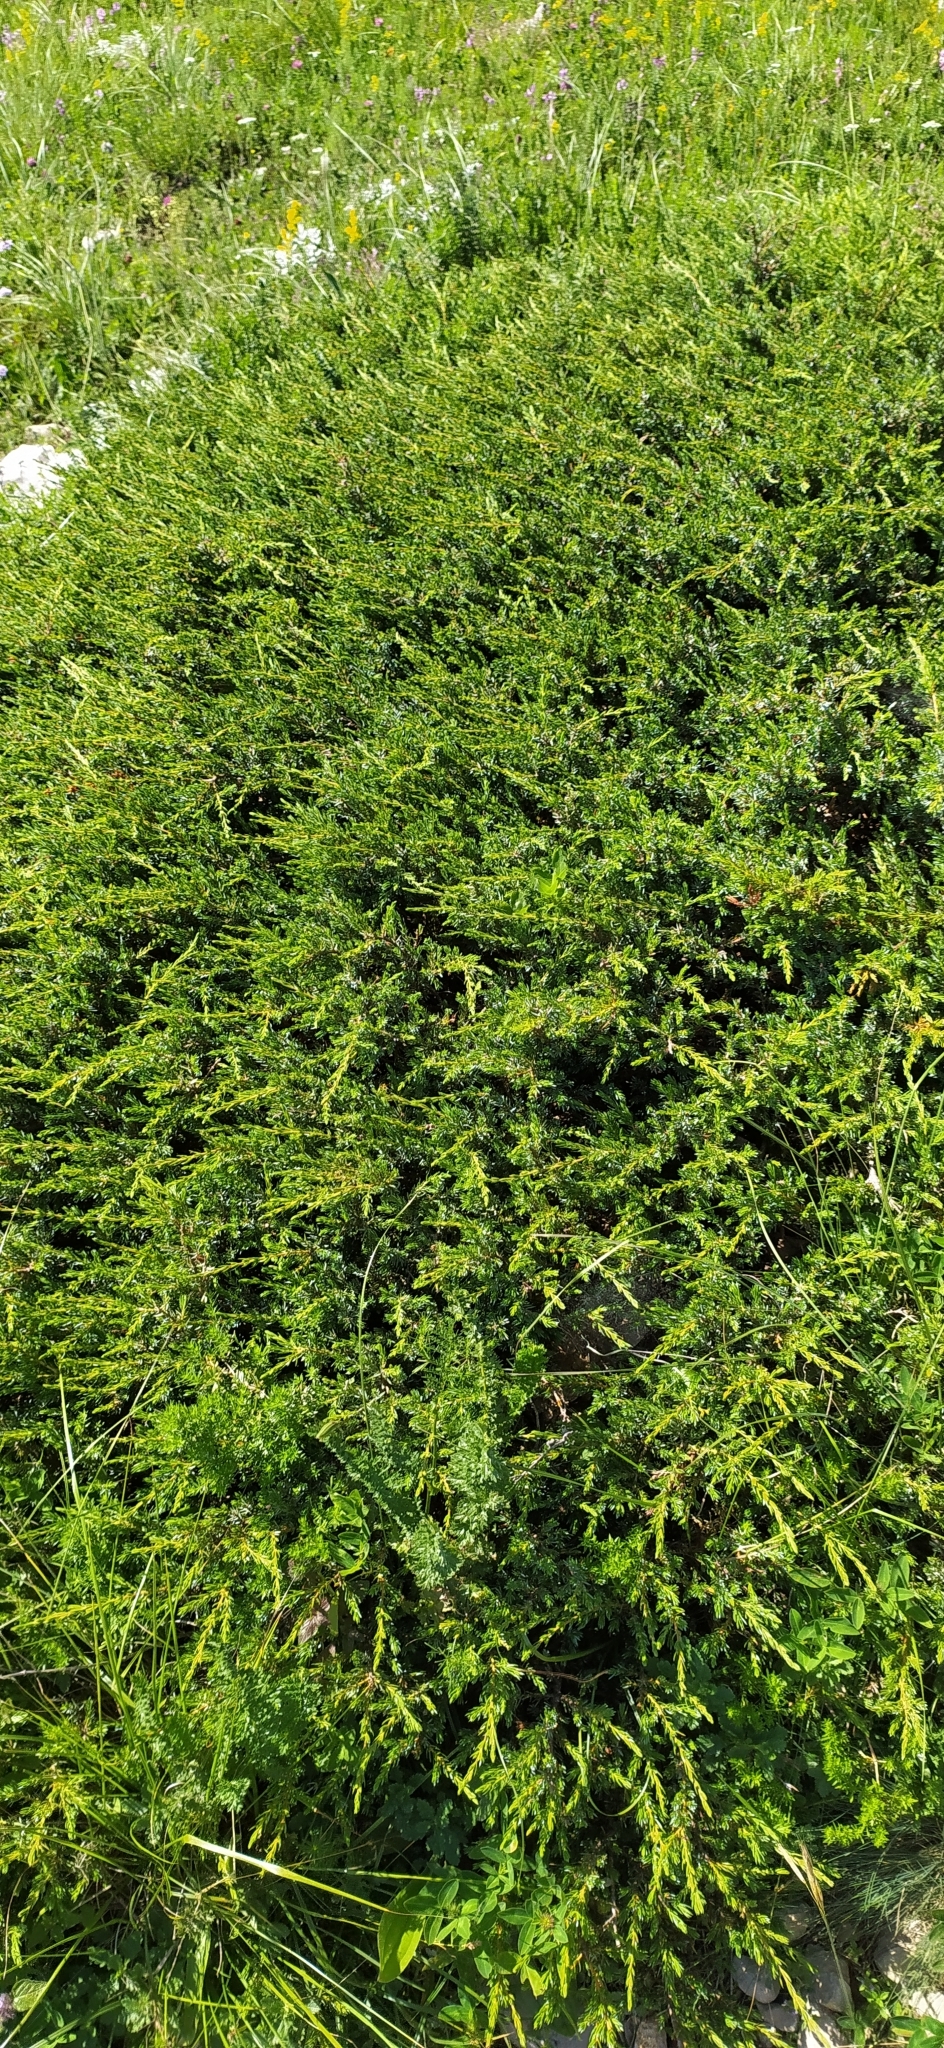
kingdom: Plantae
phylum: Tracheophyta
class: Pinopsida
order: Pinales
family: Cupressaceae
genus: Juniperus
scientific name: Juniperus communis
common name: Common juniper
